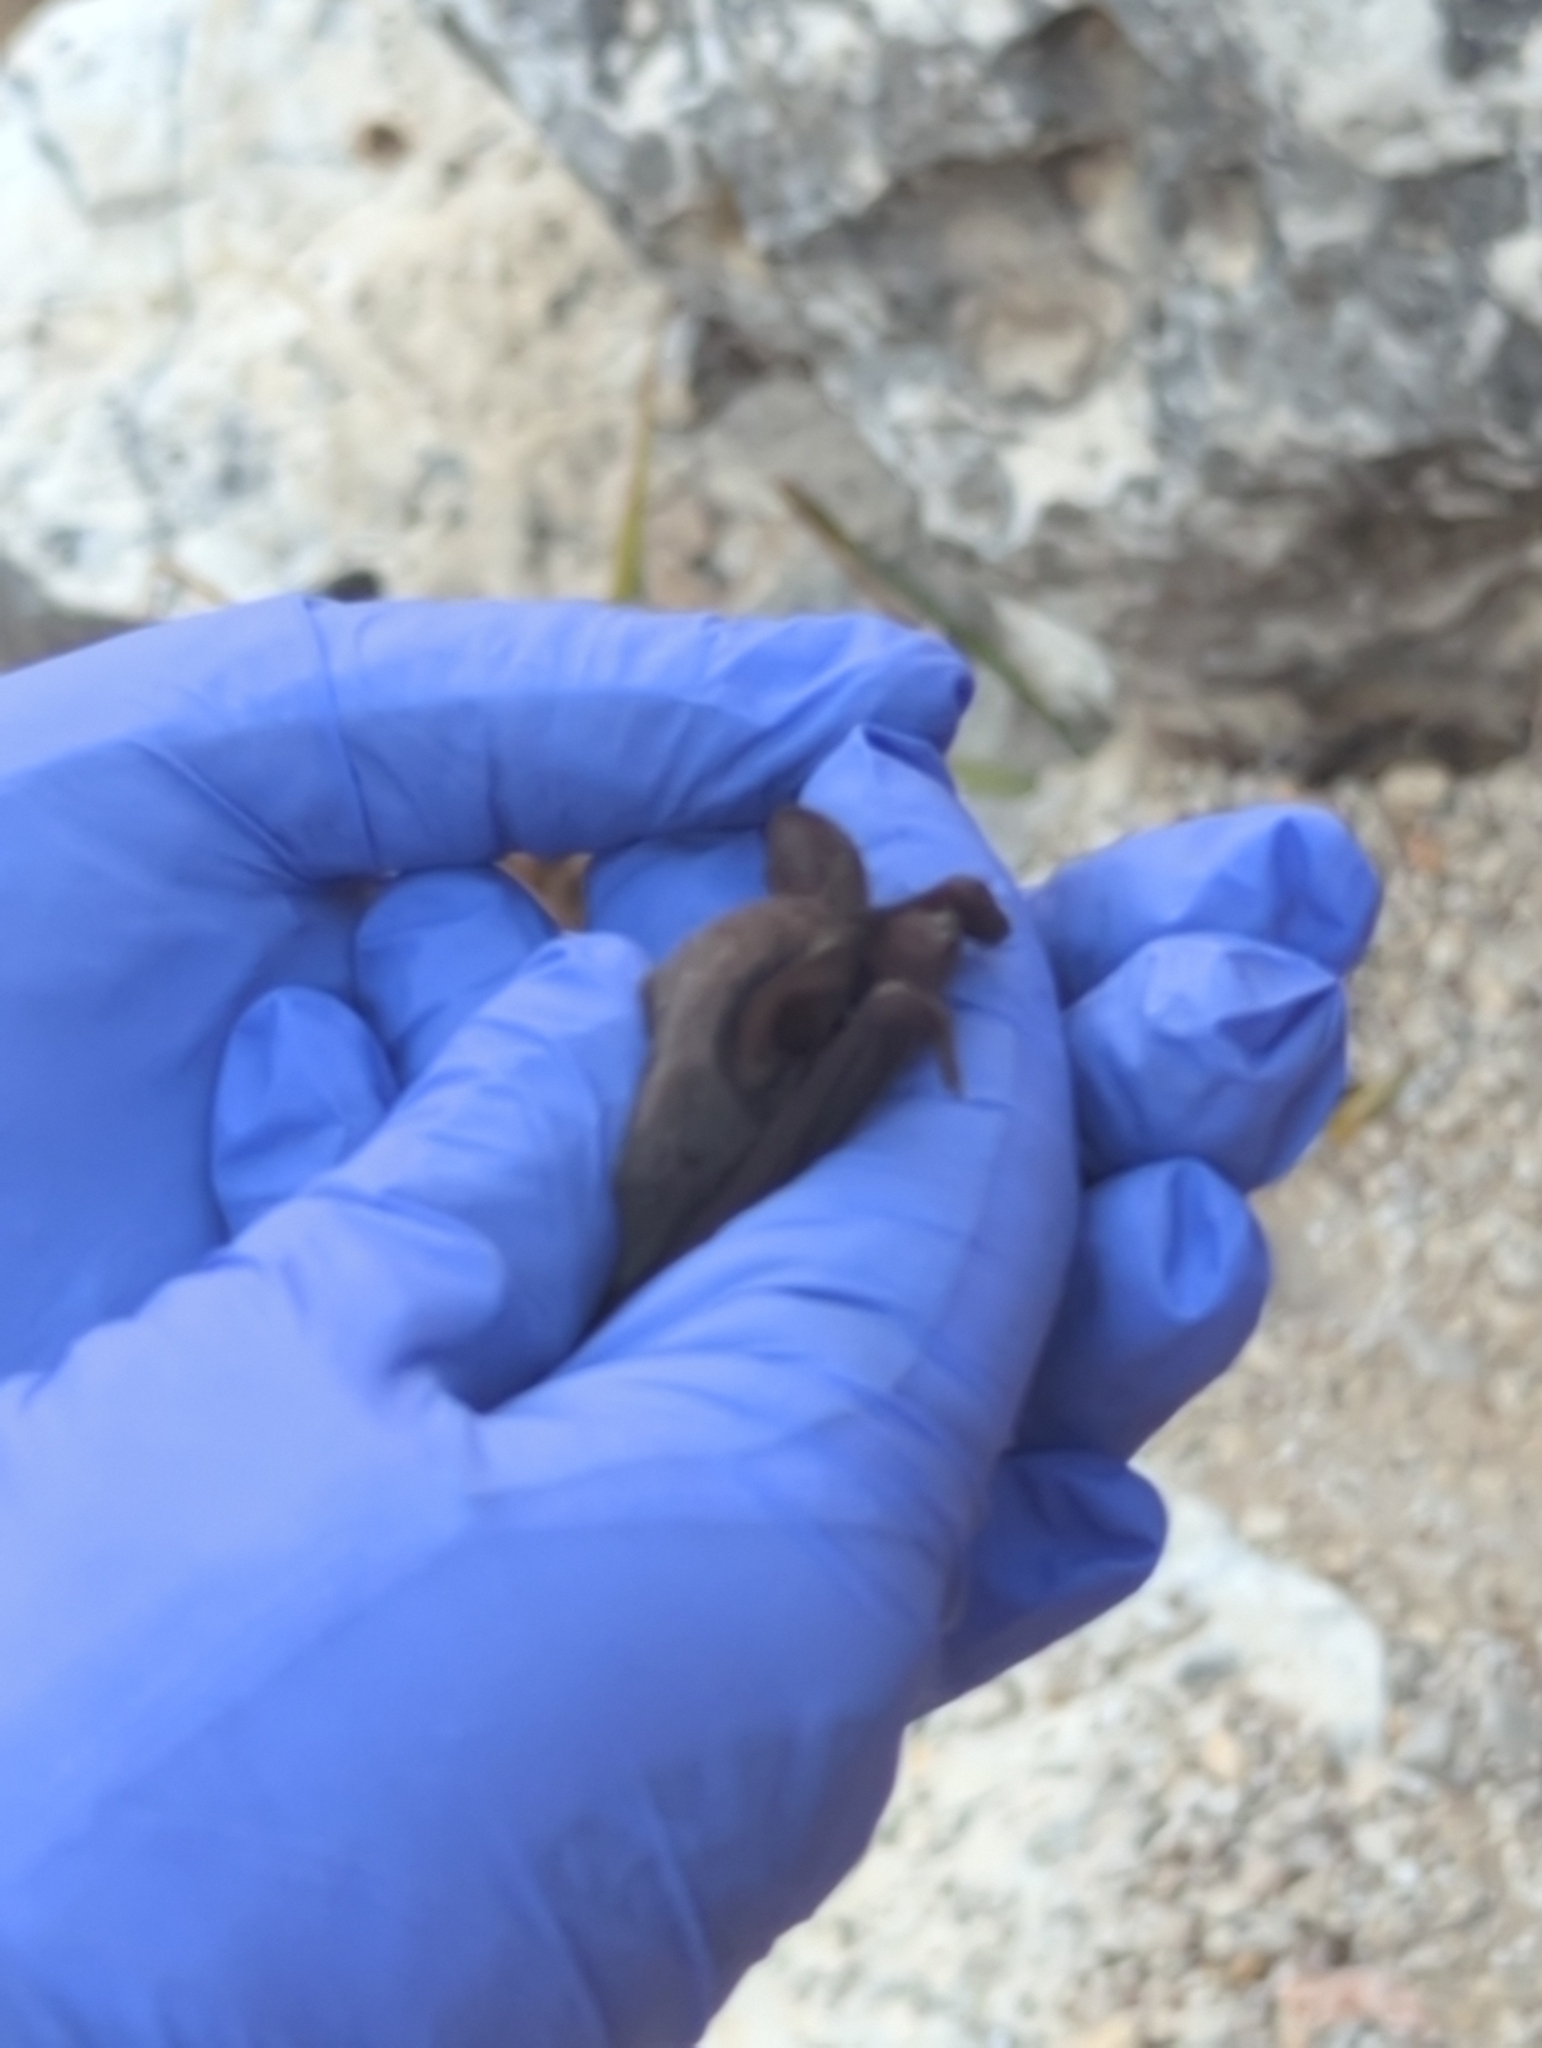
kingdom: Animalia
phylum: Chordata
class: Mammalia
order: Chiroptera
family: Molossidae
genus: Tadarida
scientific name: Tadarida brasiliensis
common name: Mexican free-tailed bat
